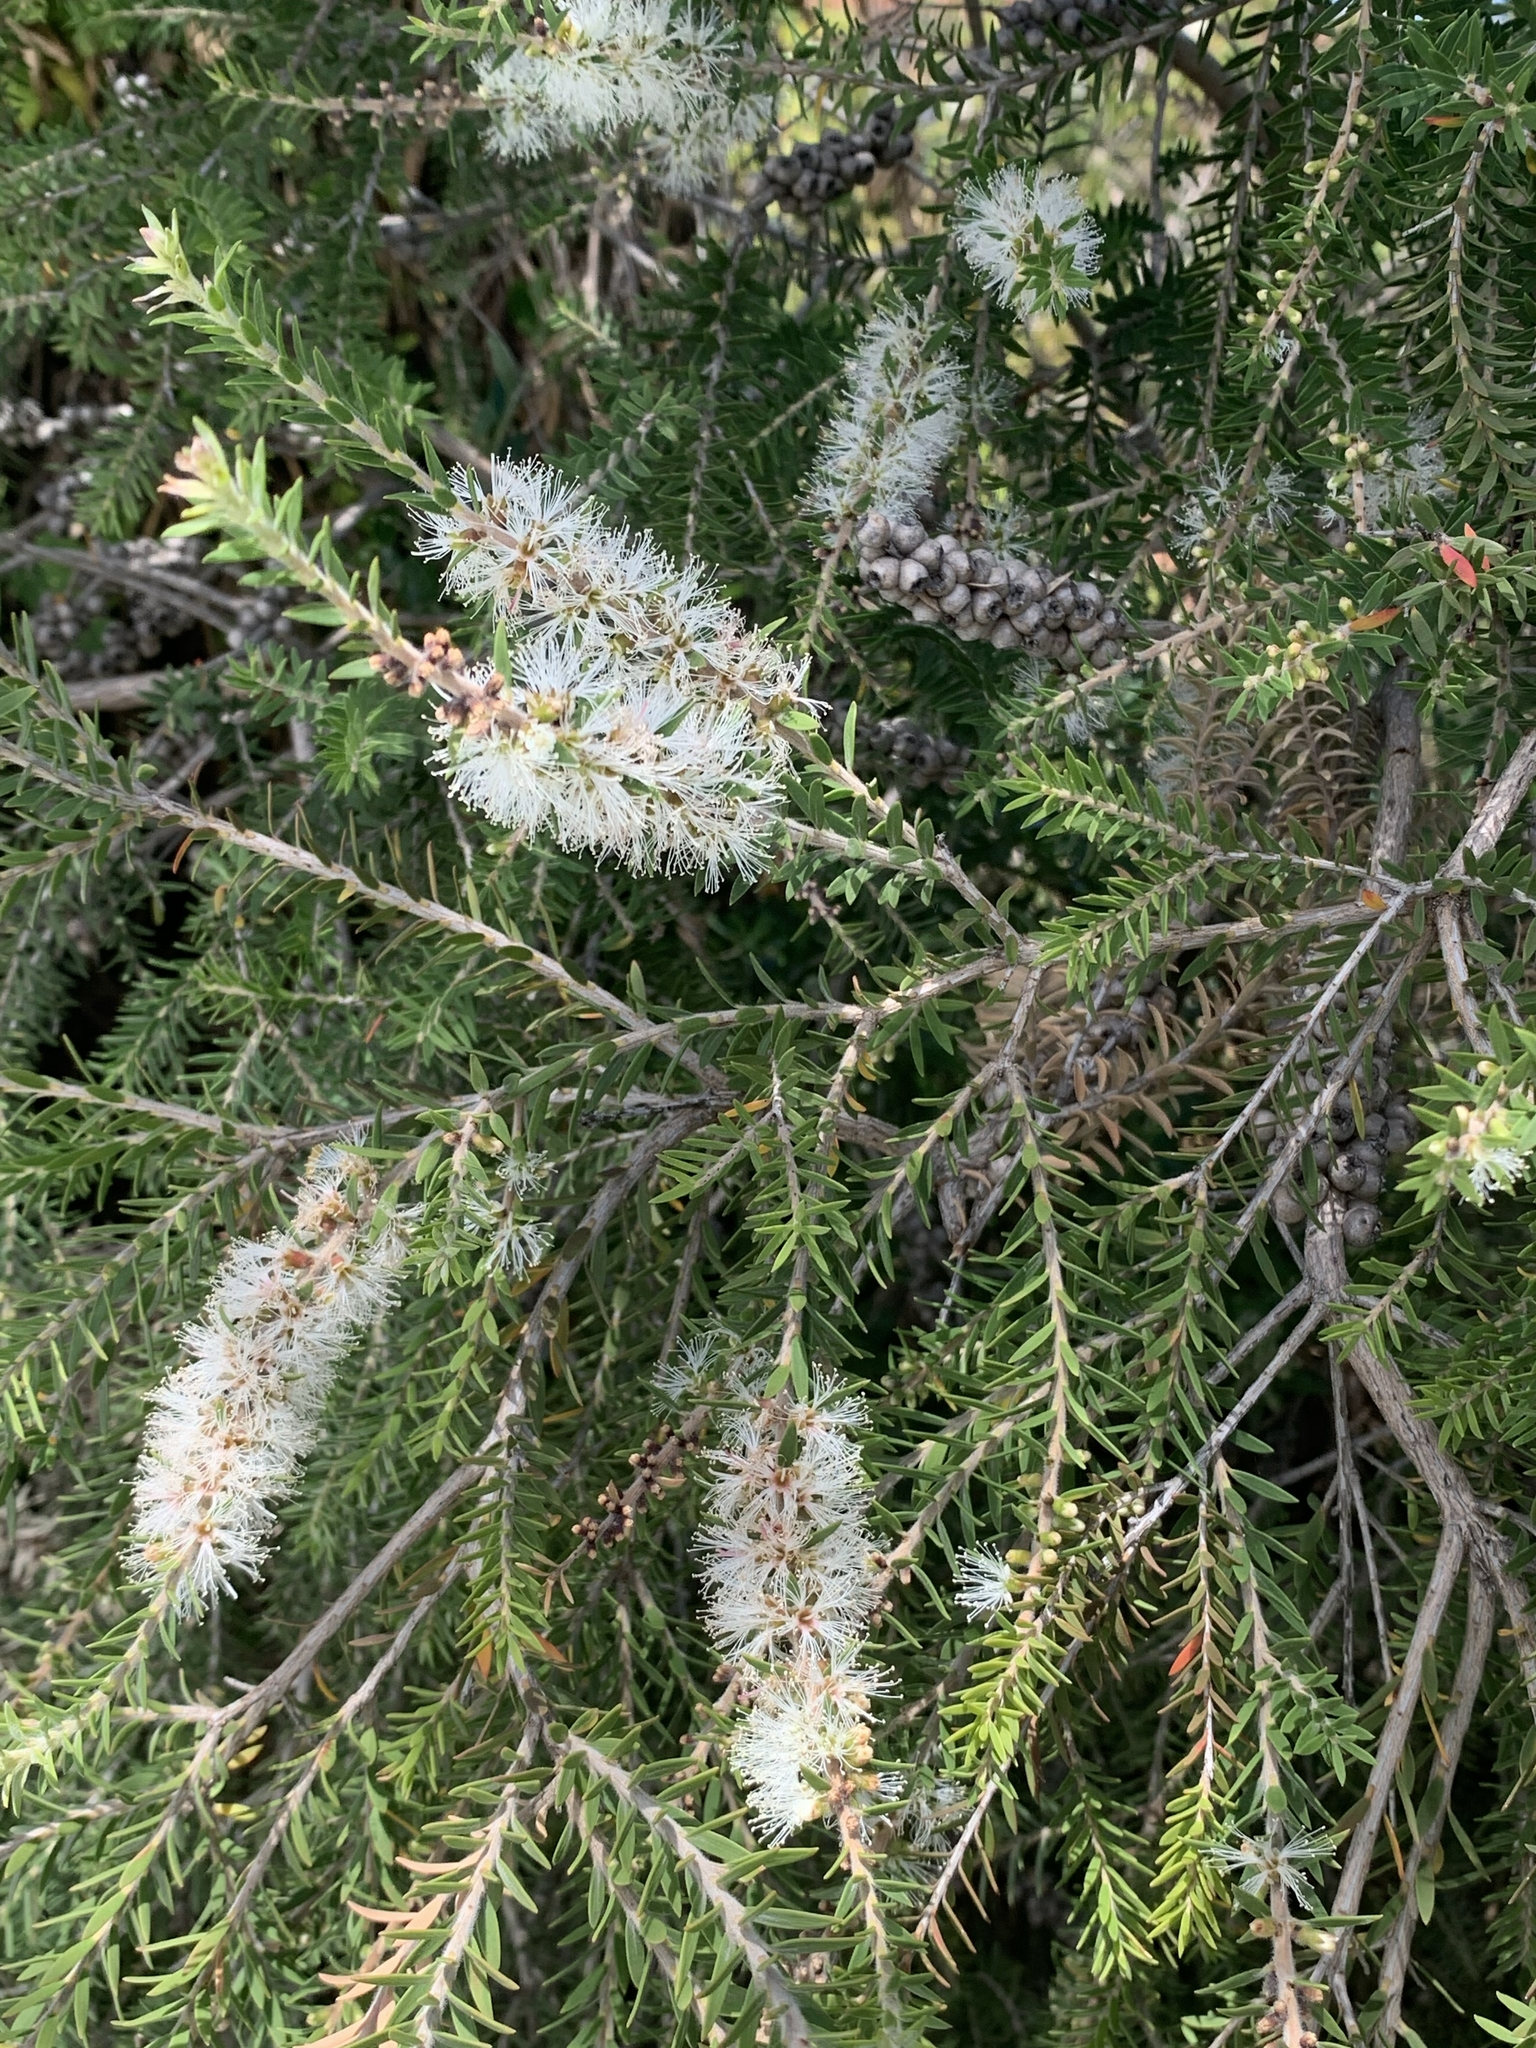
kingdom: Plantae
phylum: Tracheophyta
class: Magnoliopsida
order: Myrtales
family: Myrtaceae
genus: Melaleuca
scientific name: Melaleuca lanceolata
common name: Rottnest island teatree
